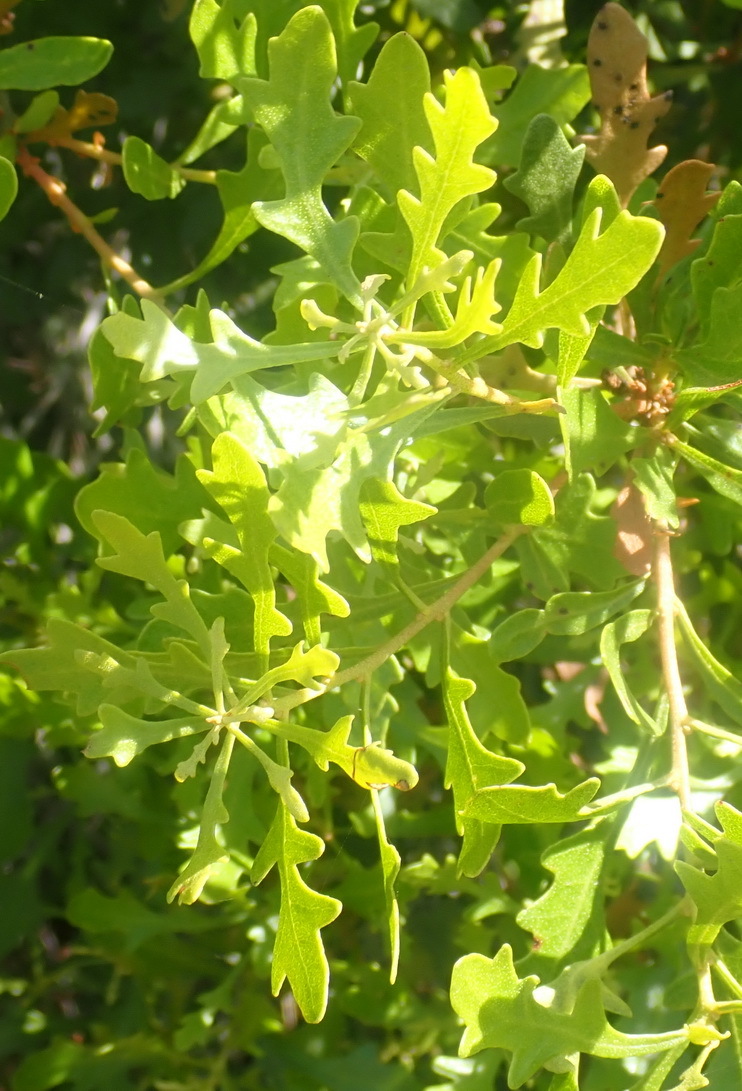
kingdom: Plantae
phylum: Tracheophyta
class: Magnoliopsida
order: Fagales
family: Myricaceae
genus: Morella
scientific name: Morella quercifolia
